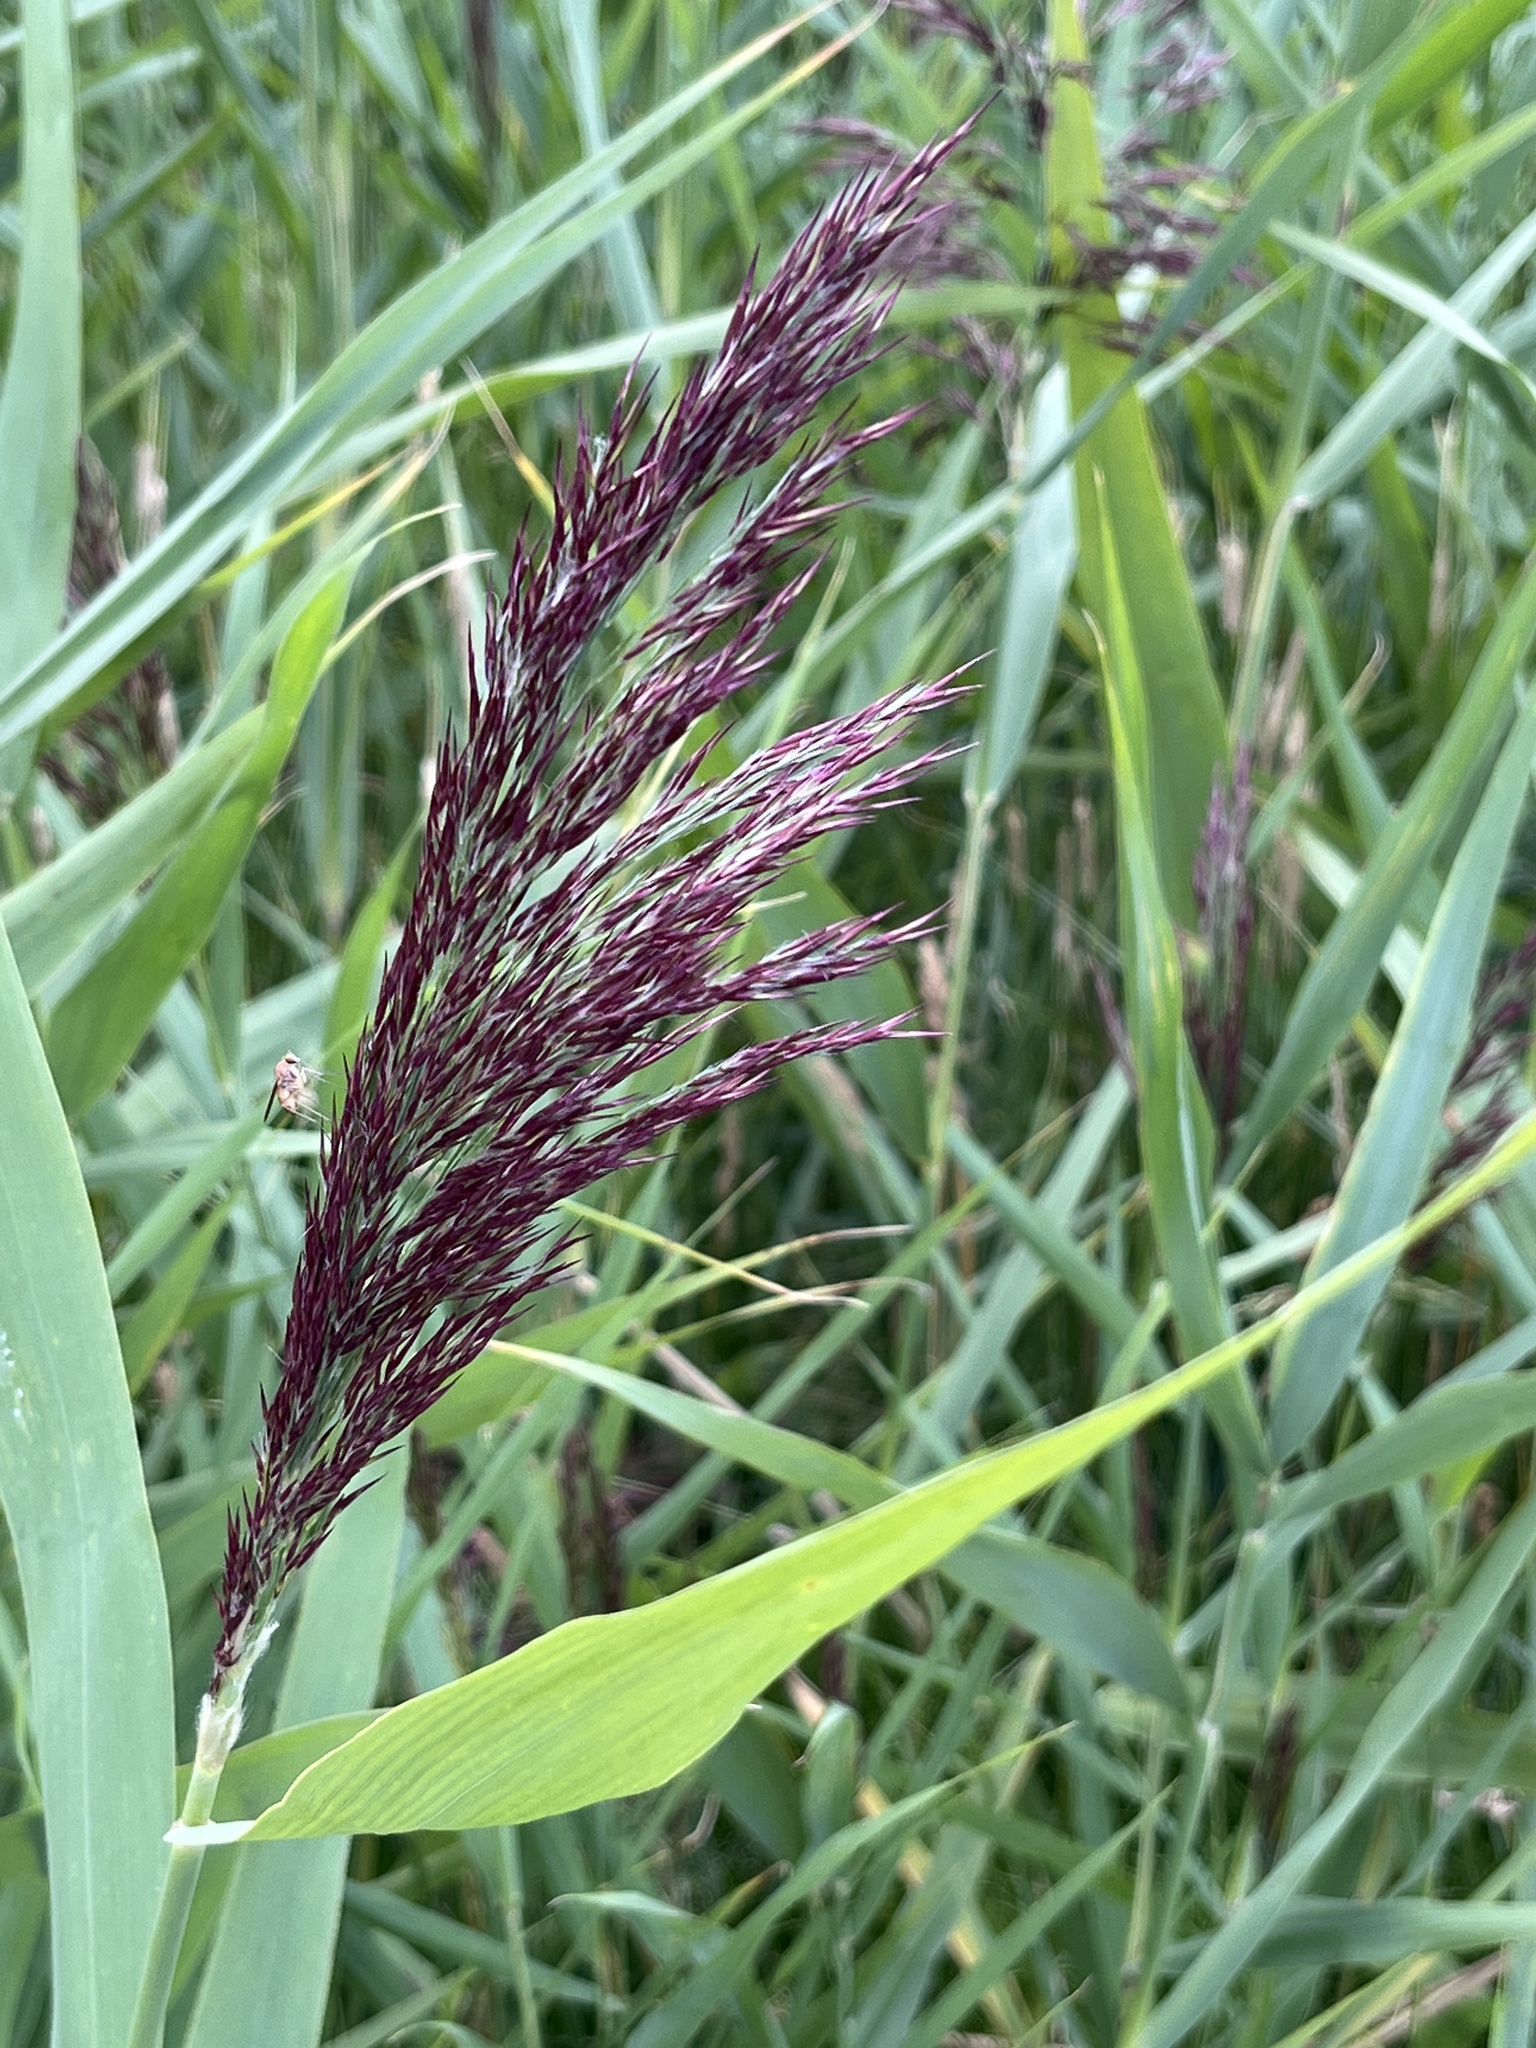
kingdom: Plantae
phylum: Tracheophyta
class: Liliopsida
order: Poales
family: Poaceae
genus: Phragmites
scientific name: Phragmites australis
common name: Common reed
